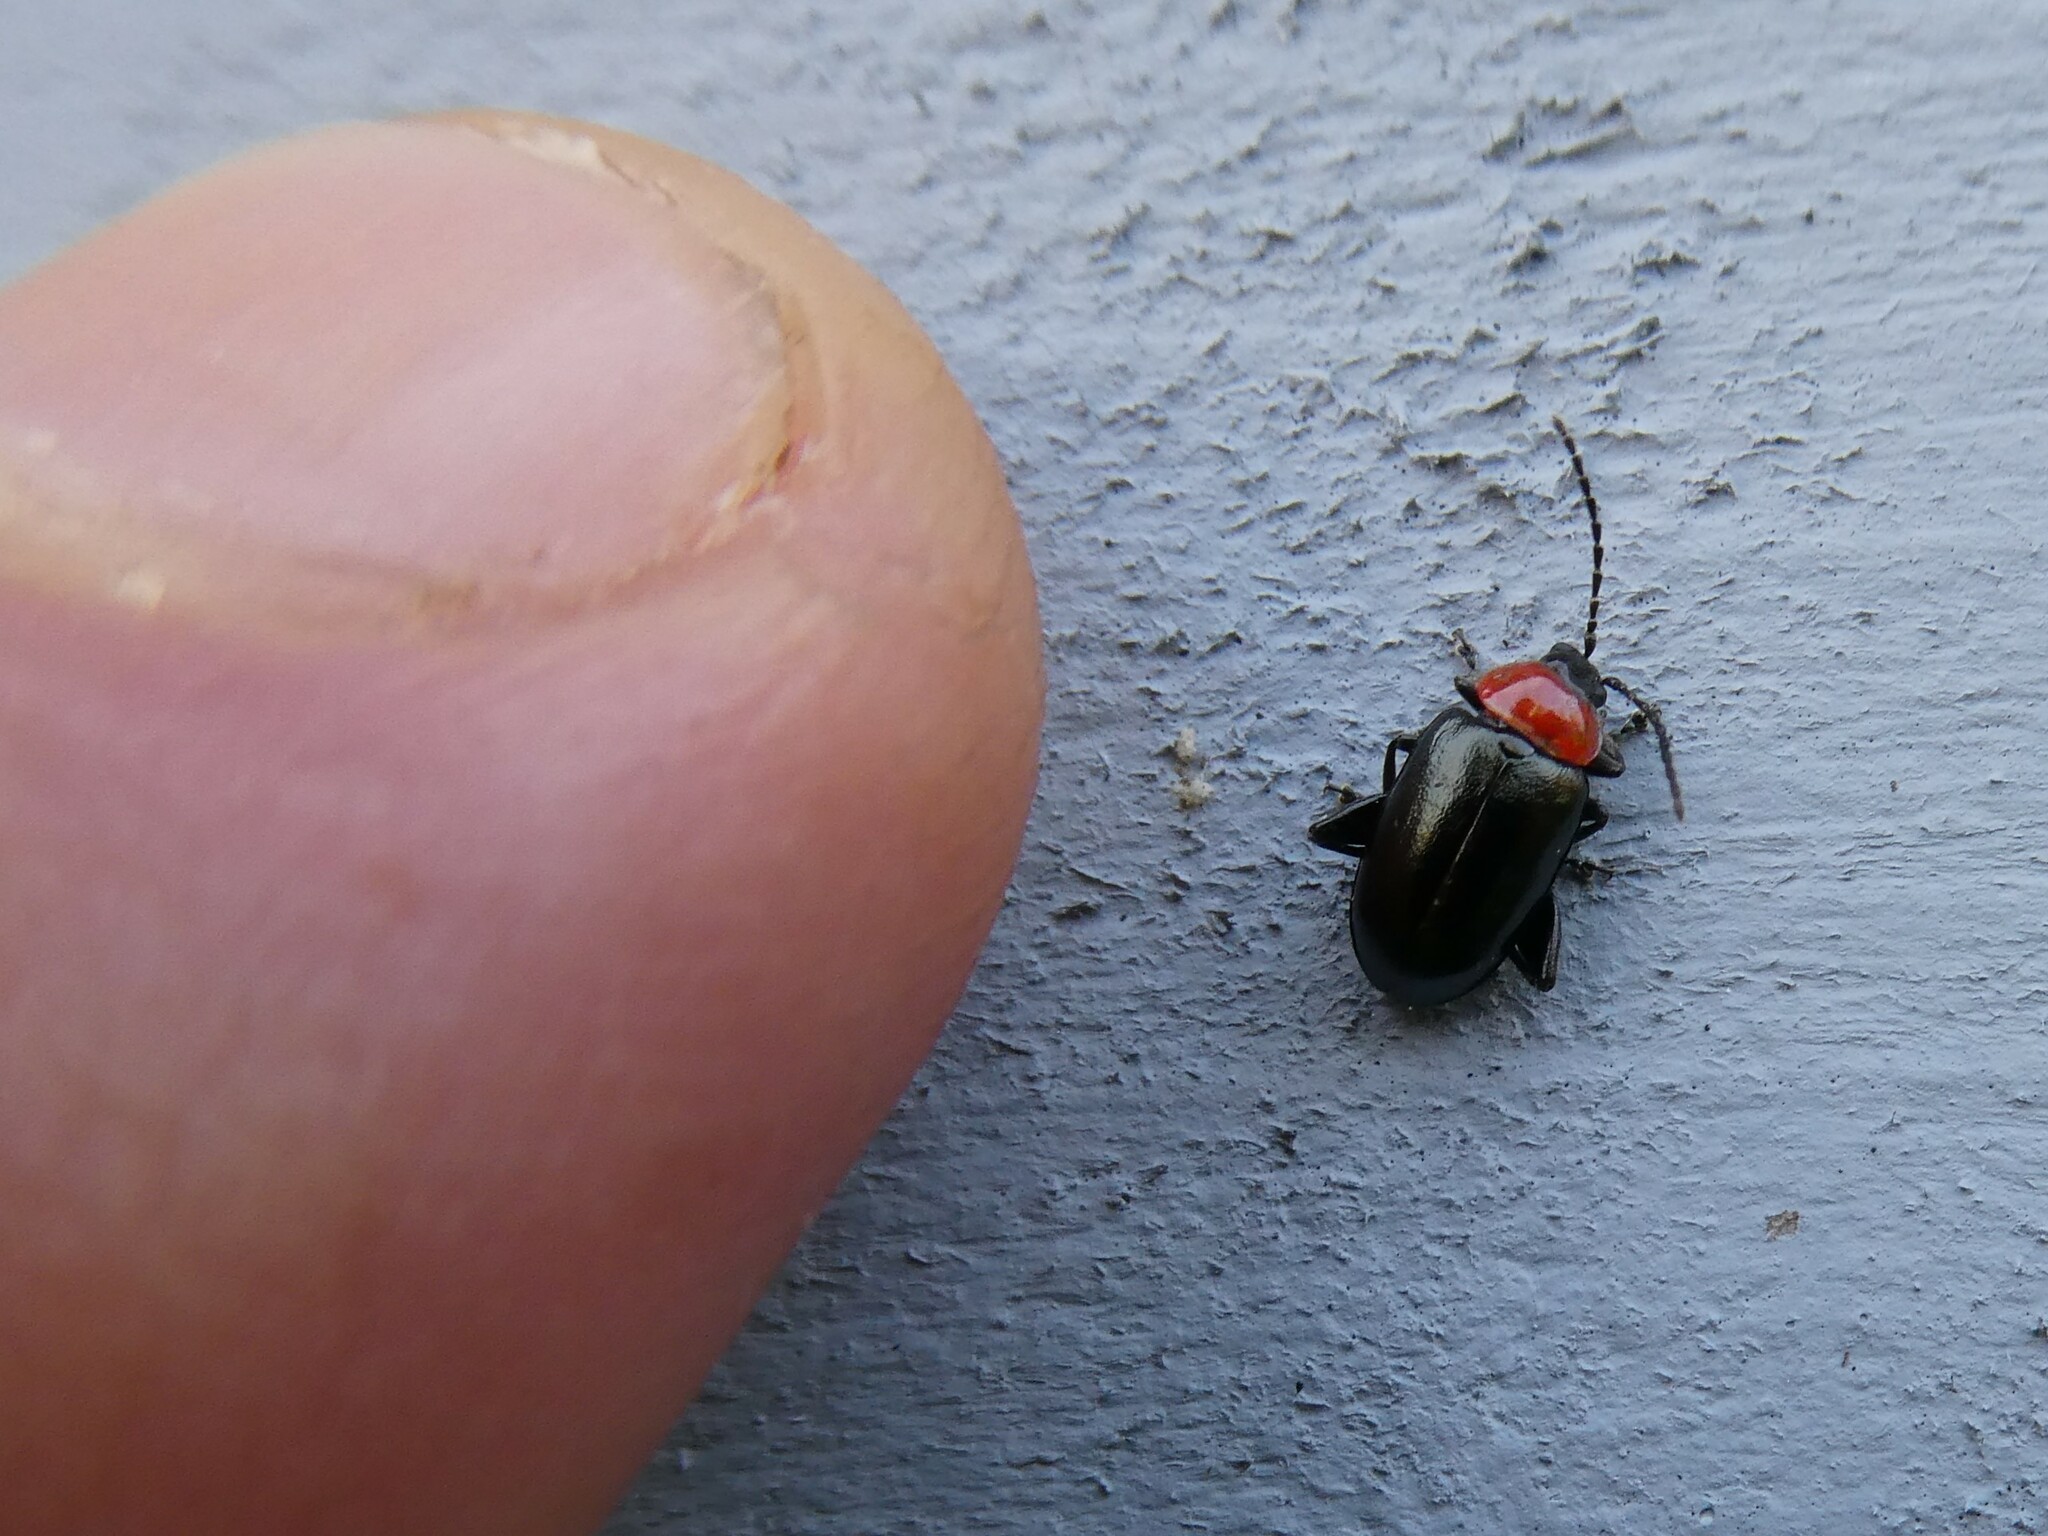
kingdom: Animalia
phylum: Arthropoda
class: Insecta
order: Coleoptera
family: Chrysomelidae
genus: Disonycha
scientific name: Disonycha xanthomelas
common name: Spinach flea beetle
